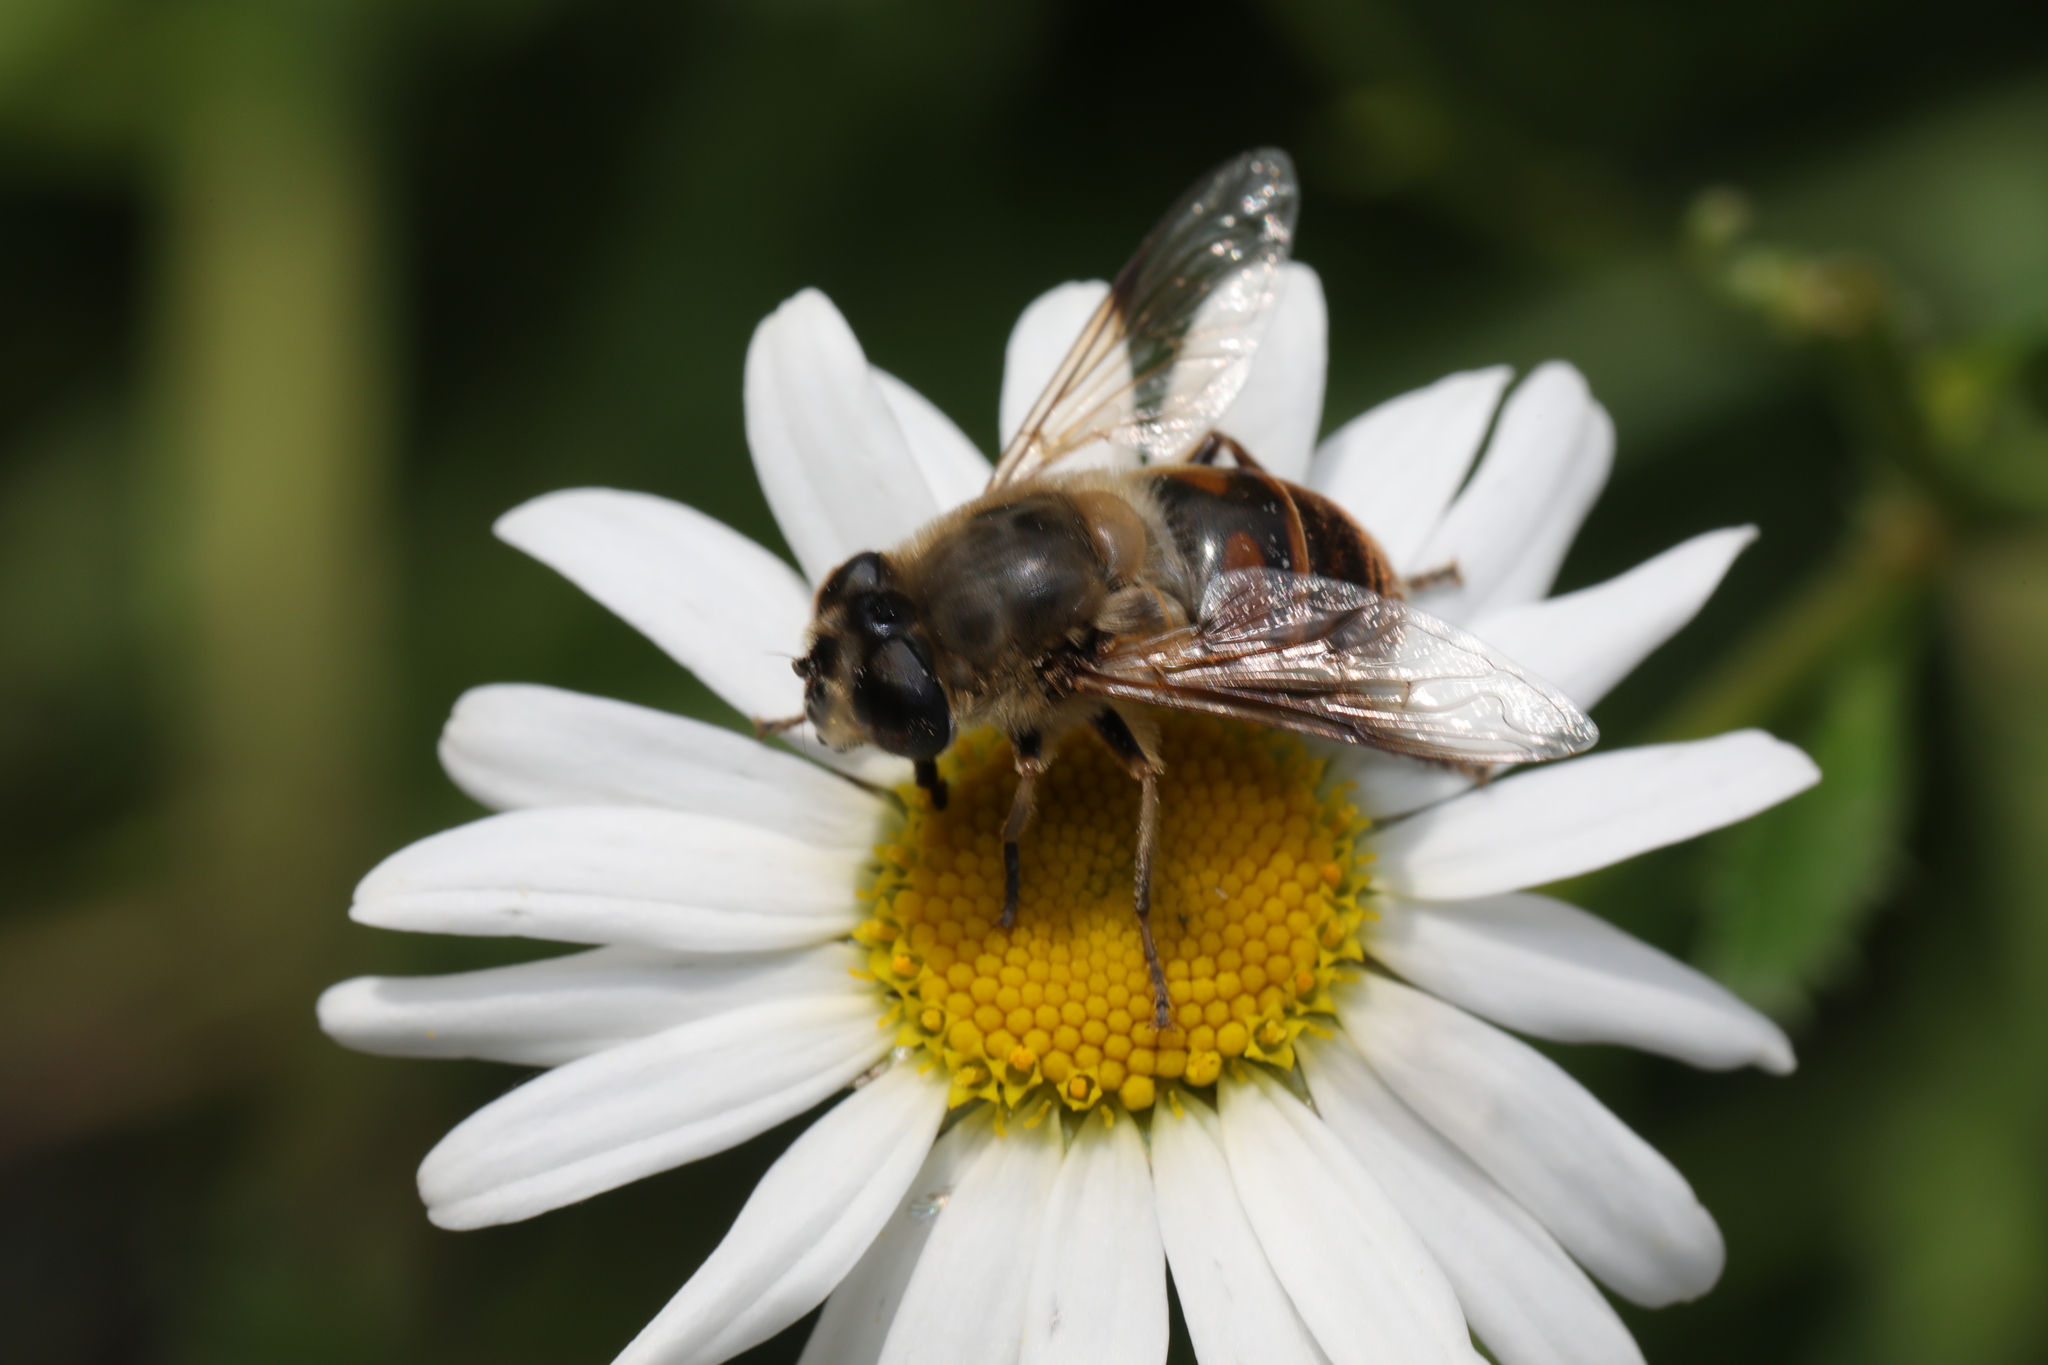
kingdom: Animalia
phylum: Arthropoda
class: Insecta
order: Diptera
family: Syrphidae
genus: Eristalis
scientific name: Eristalis tenax
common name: Drone fly
